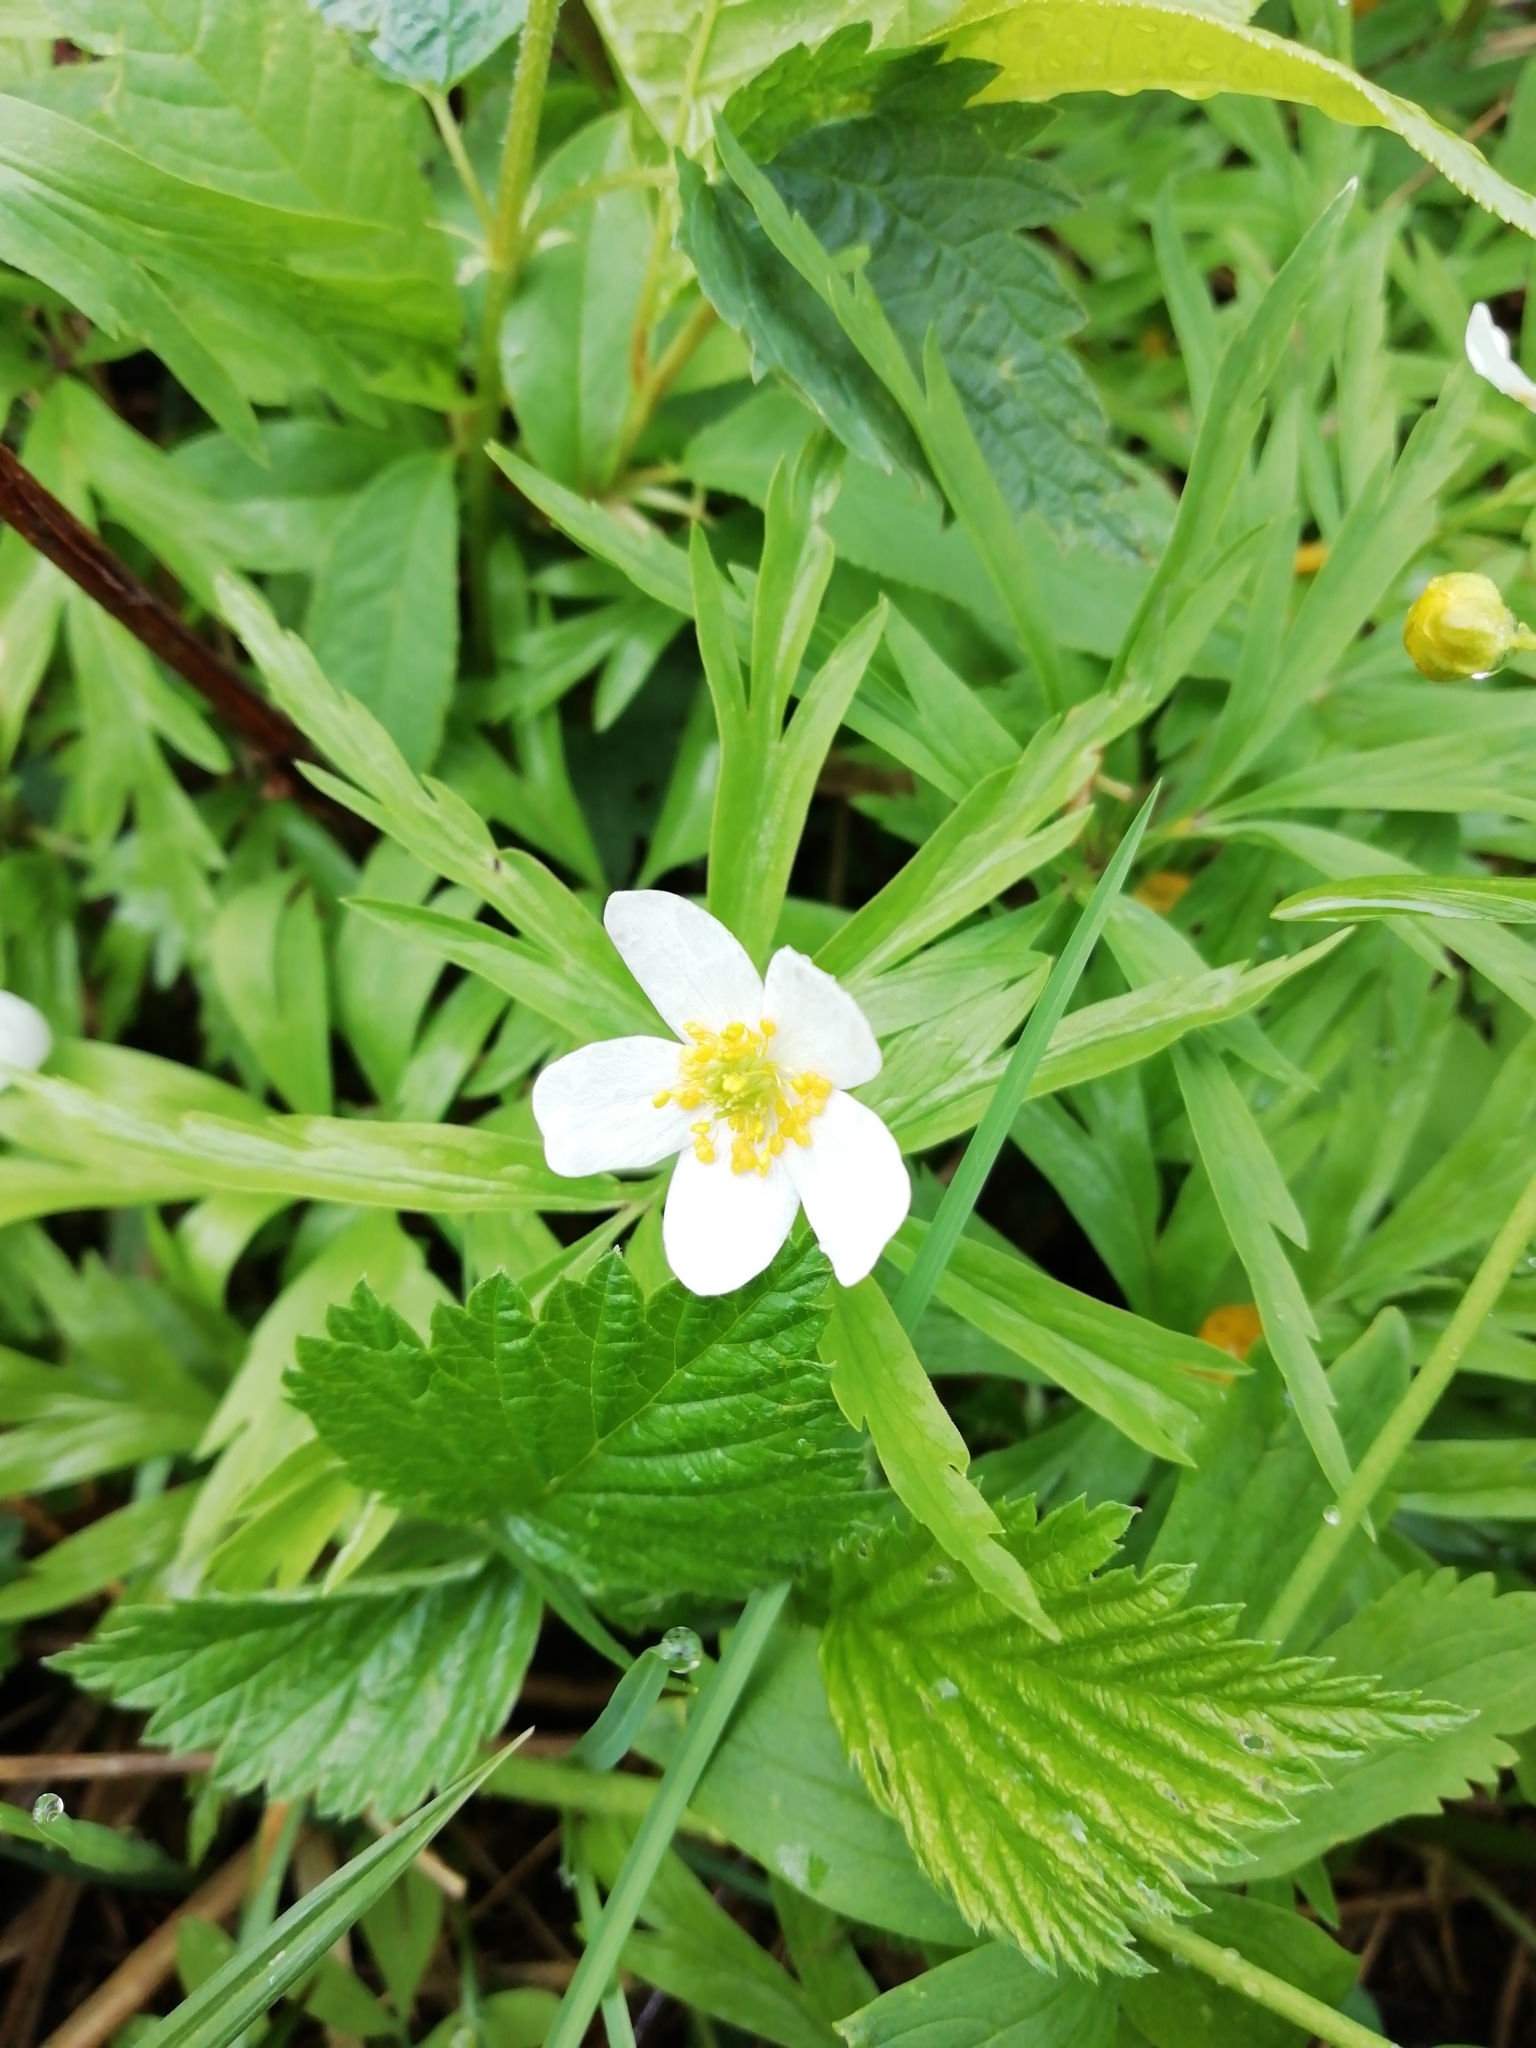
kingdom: Plantae
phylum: Tracheophyta
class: Magnoliopsida
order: Ranunculales
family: Ranunculaceae
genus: Anemone
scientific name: Anemone caerulea
